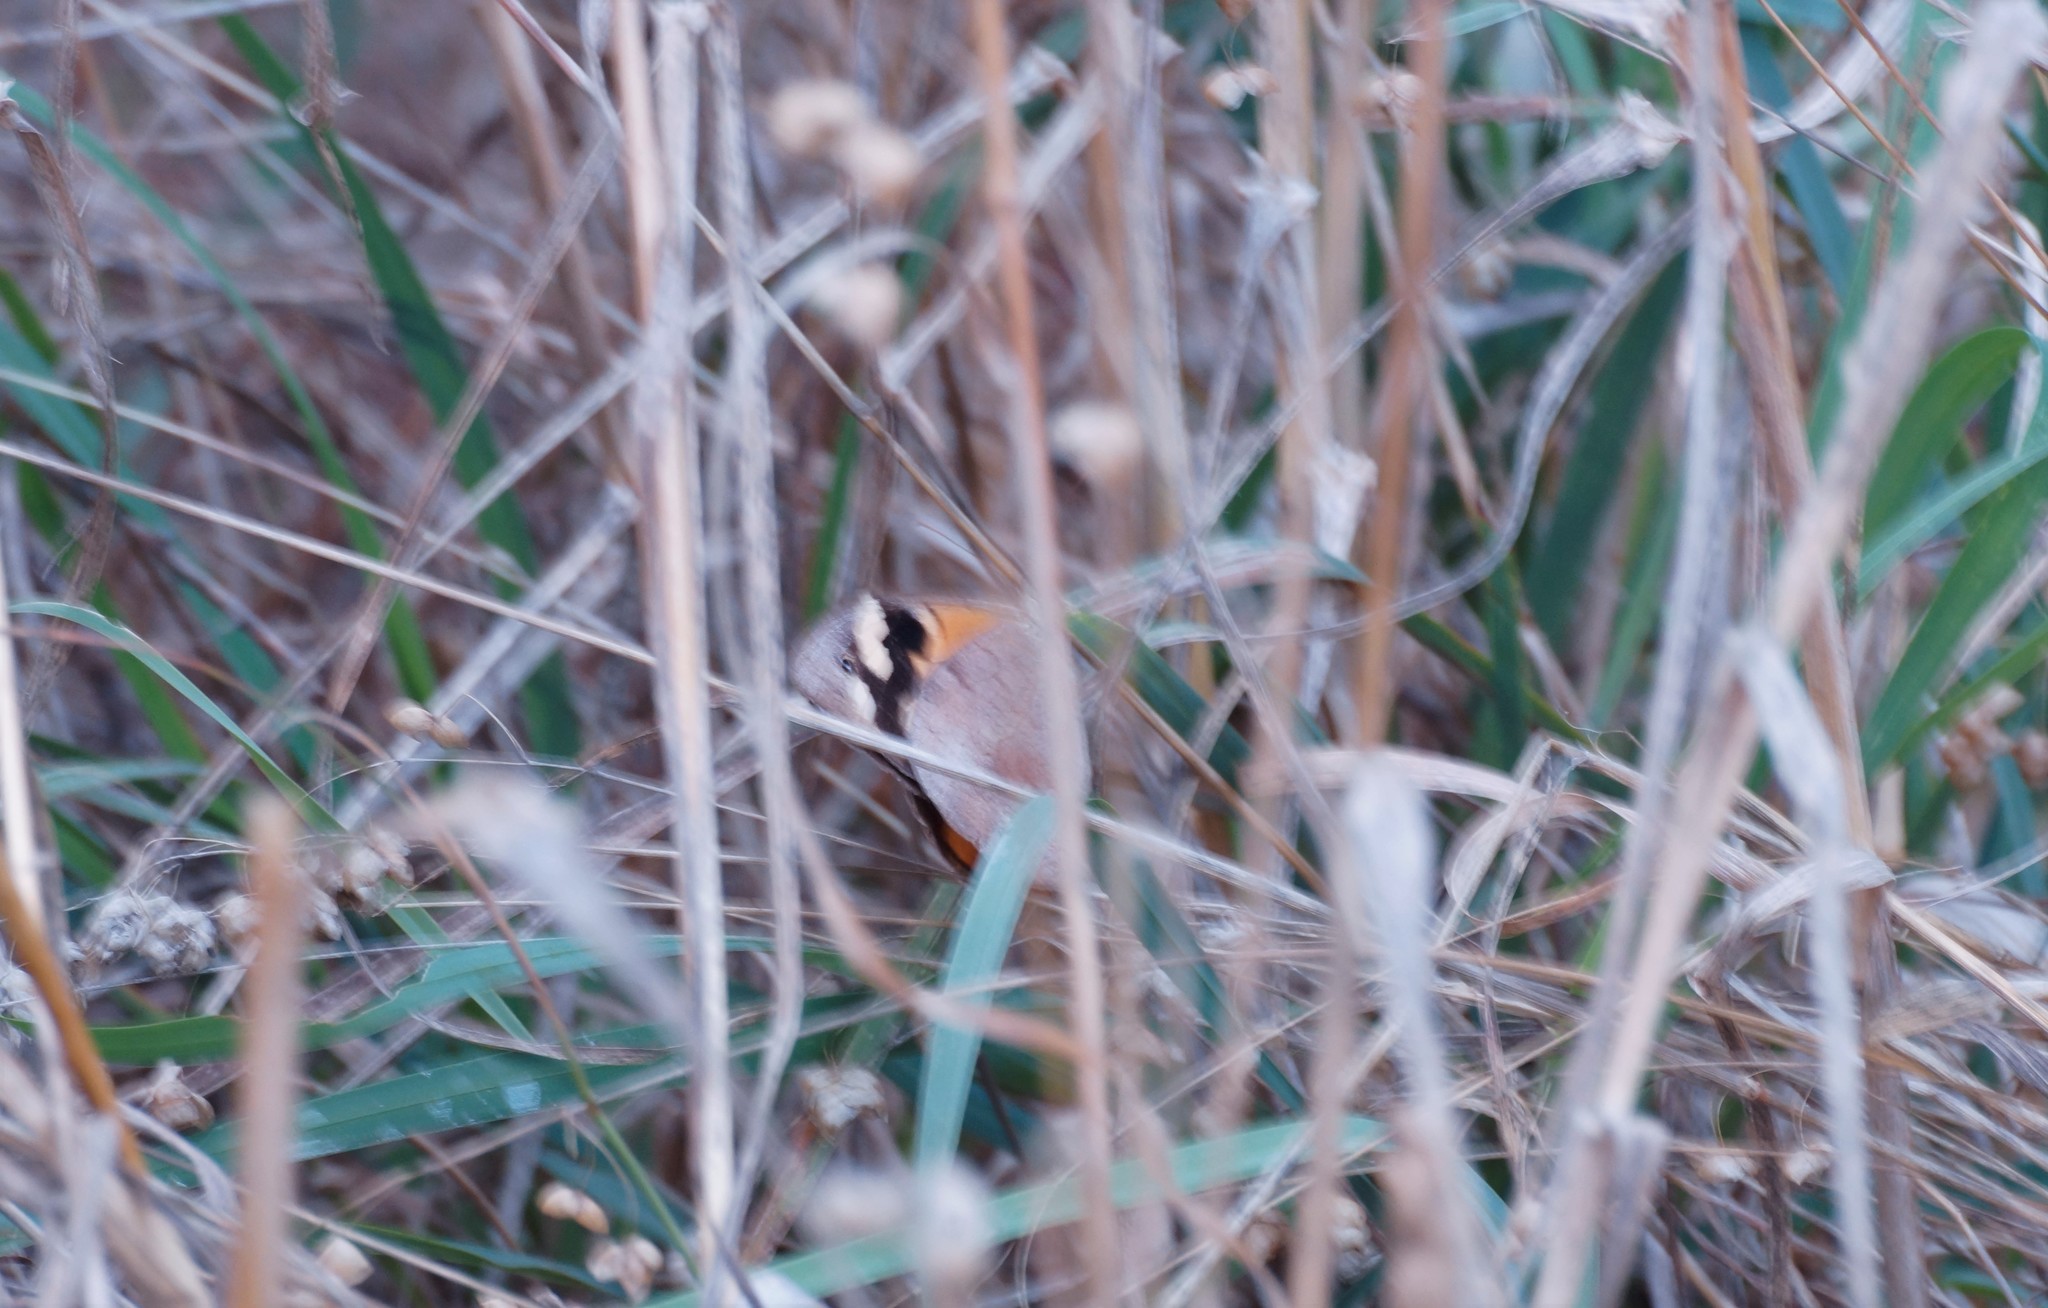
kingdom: Animalia
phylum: Arthropoda
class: Insecta
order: Lepidoptera
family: Nymphalidae
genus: Heteronympha
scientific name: Heteronympha merope
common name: Common brown
